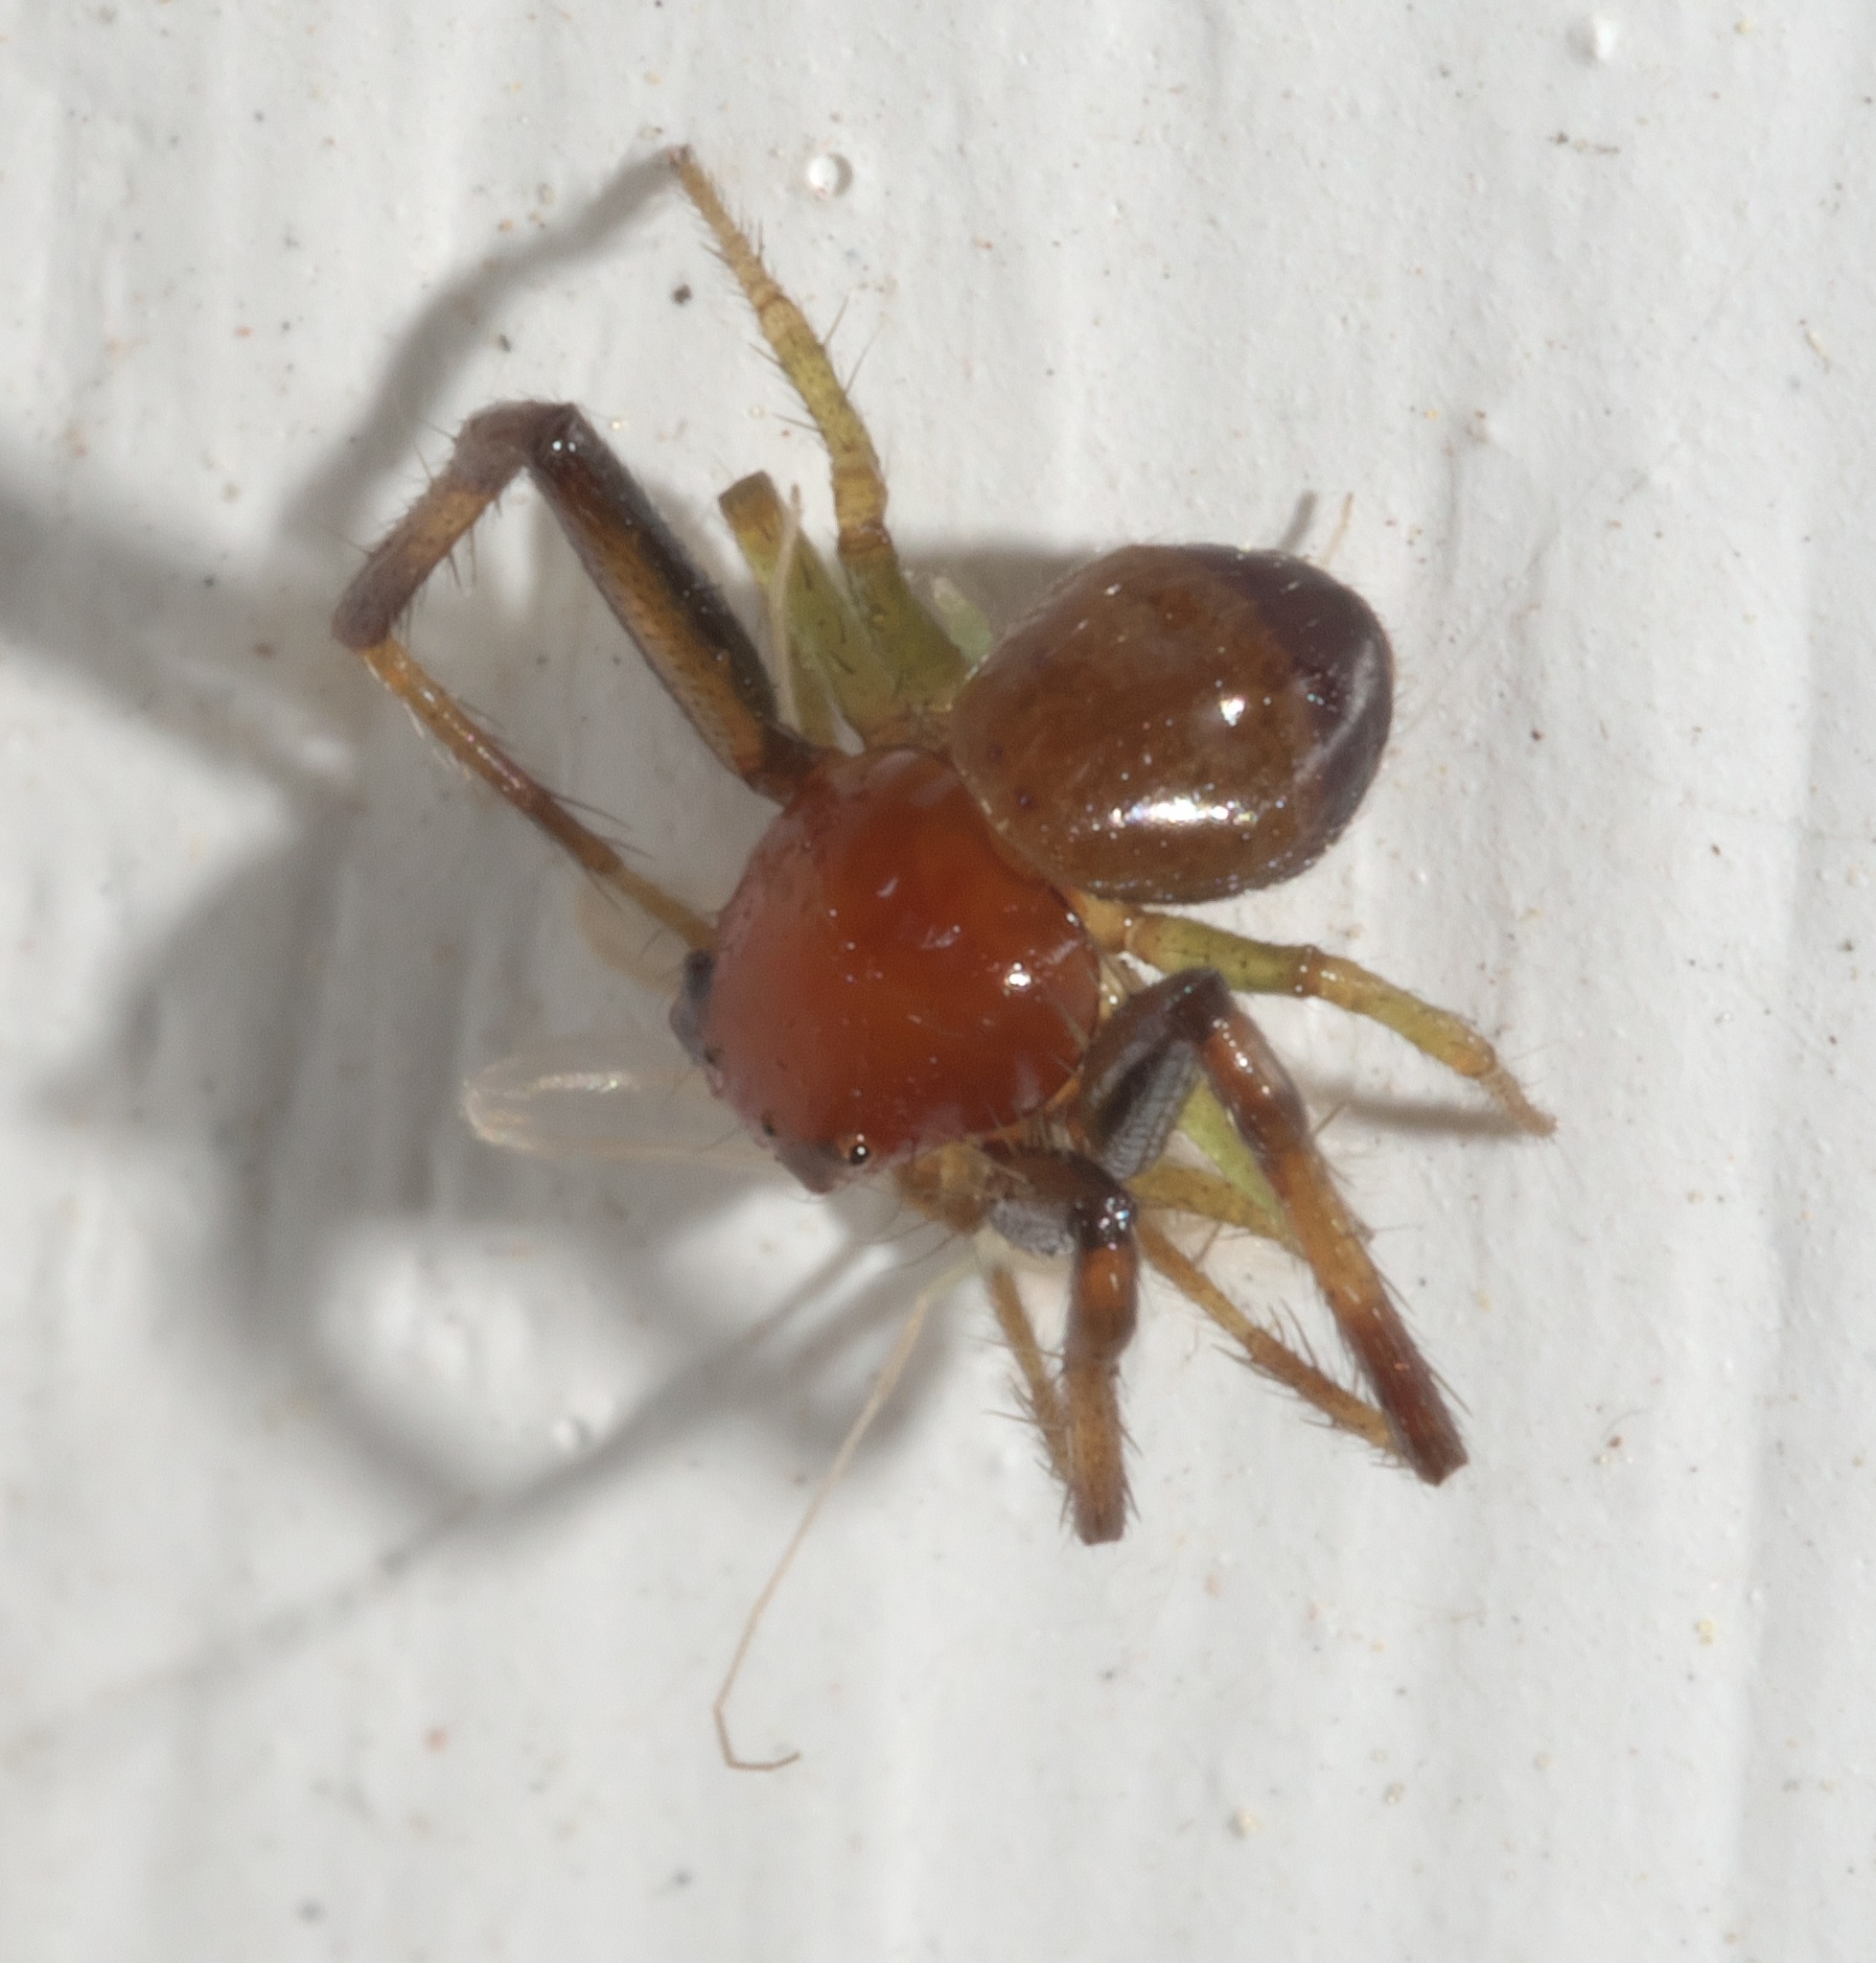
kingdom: Animalia
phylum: Arthropoda
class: Arachnida
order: Araneae
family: Thomisidae
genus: Synema
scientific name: Synema parvulum
